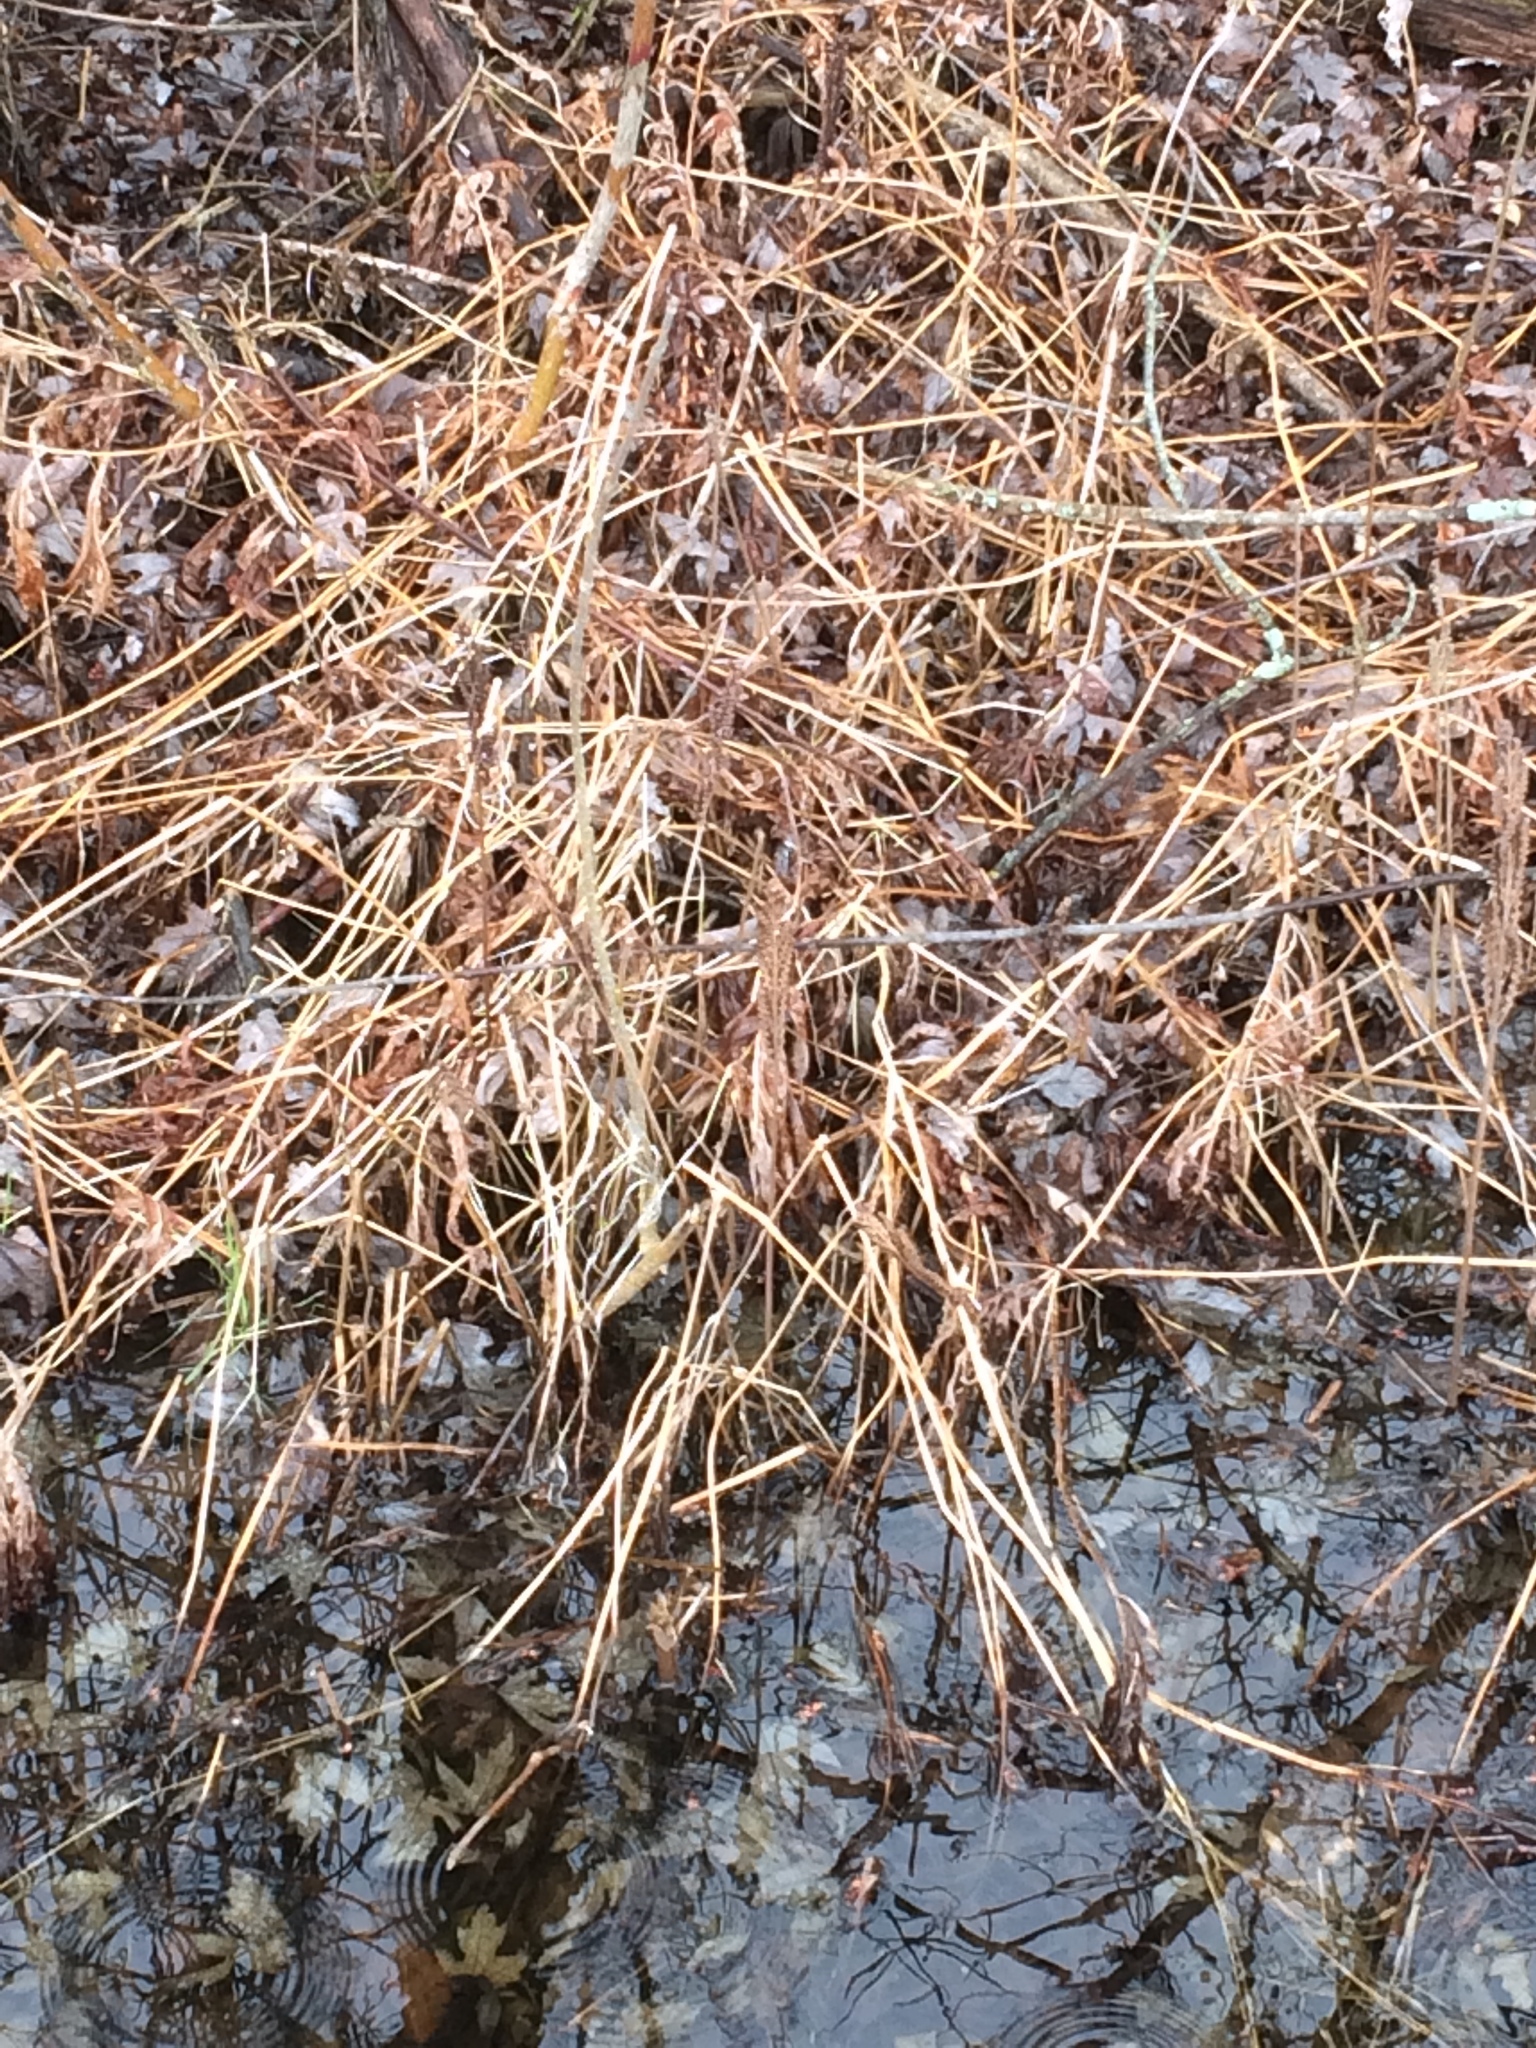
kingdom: Plantae
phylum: Tracheophyta
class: Polypodiopsida
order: Polypodiales
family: Onocleaceae
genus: Onoclea
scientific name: Onoclea sensibilis
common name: Sensitive fern
